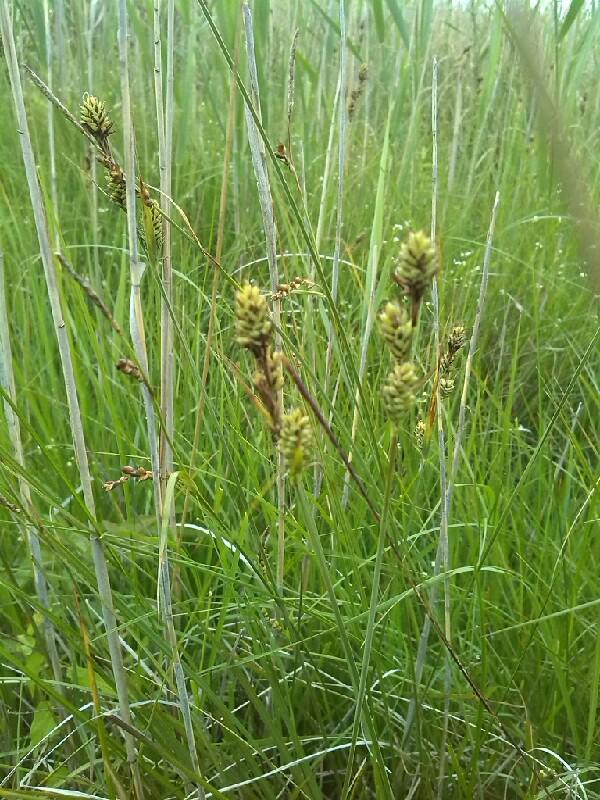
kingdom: Plantae
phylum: Tracheophyta
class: Liliopsida
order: Poales
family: Cyperaceae
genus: Carex
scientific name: Carex buxbaumii
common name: Club sedge
